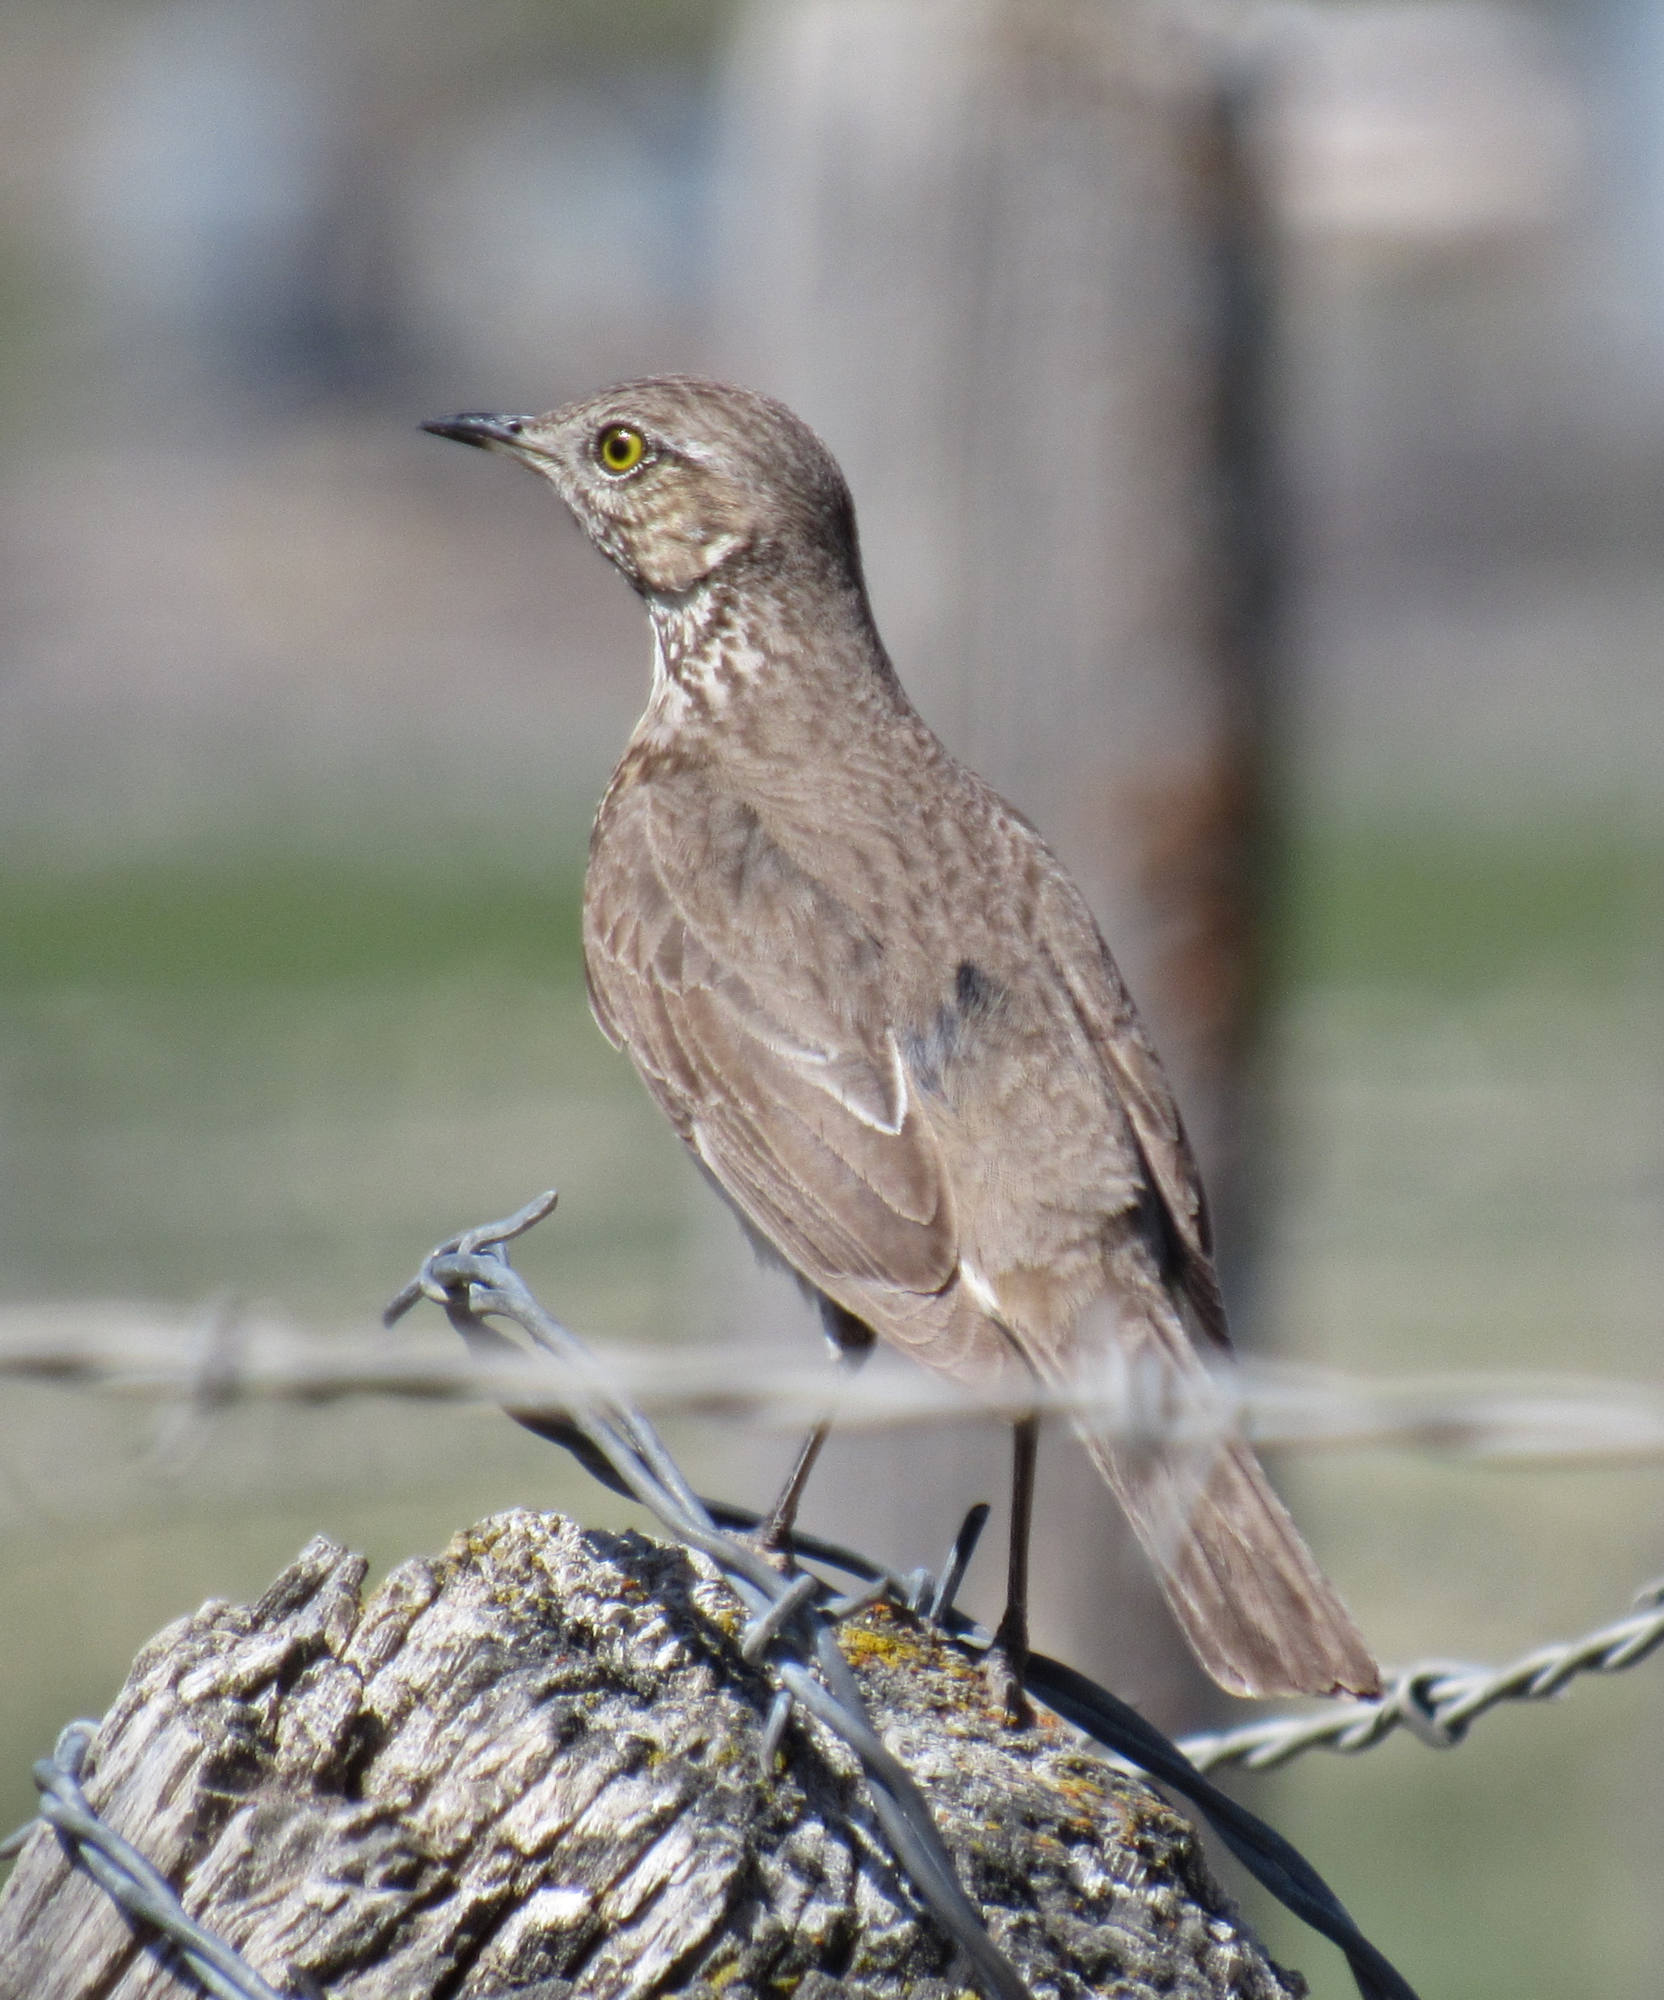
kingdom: Animalia
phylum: Chordata
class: Aves
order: Passeriformes
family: Mimidae
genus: Oreoscoptes
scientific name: Oreoscoptes montanus
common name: Sage thrasher
